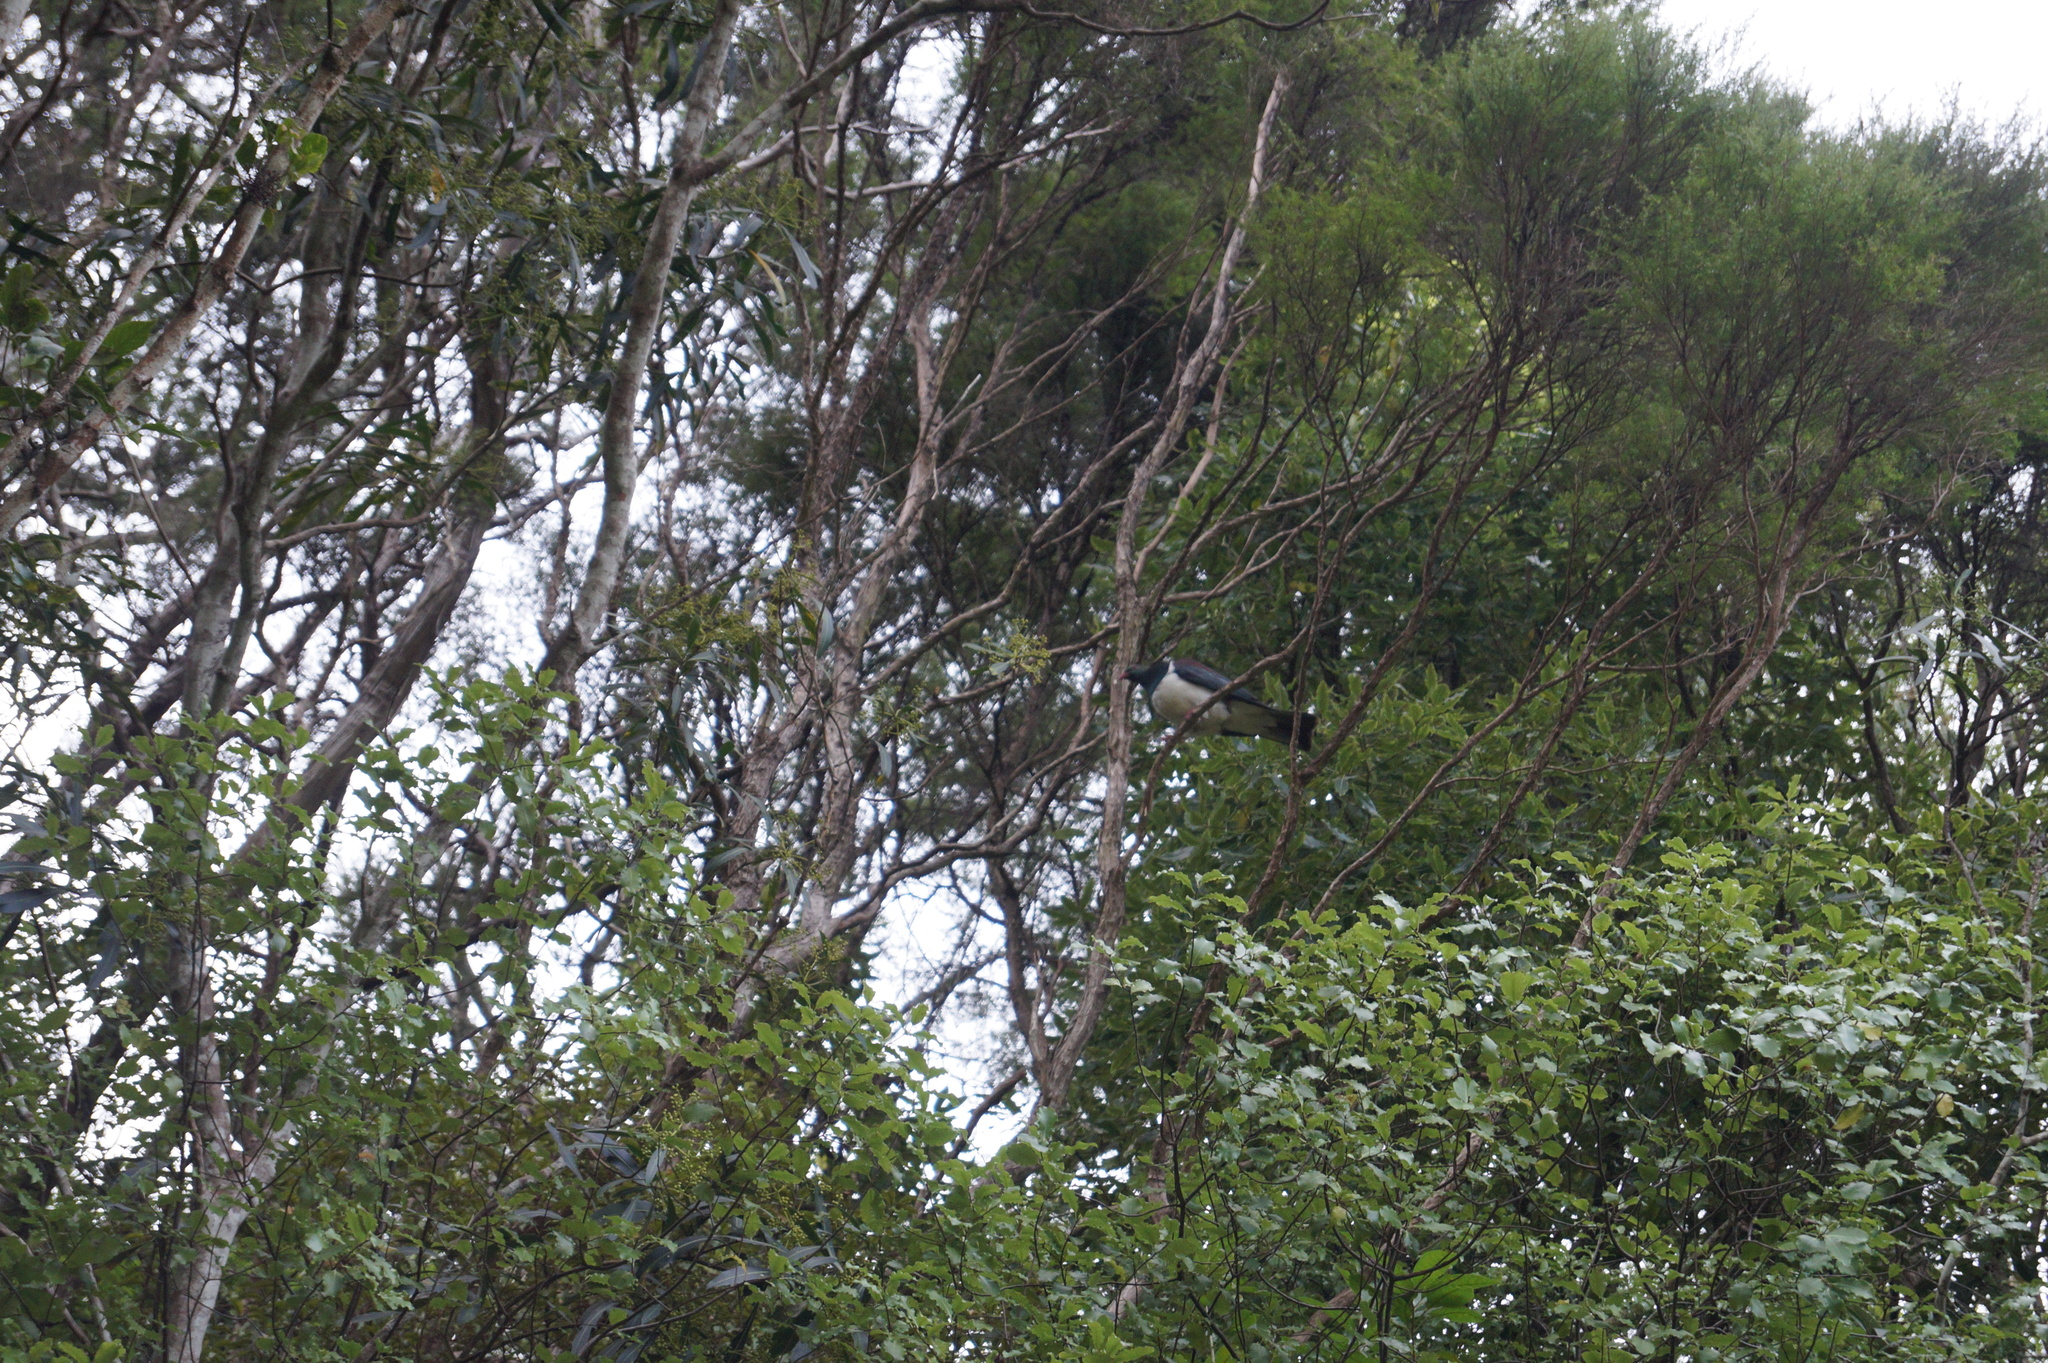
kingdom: Animalia
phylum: Chordata
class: Aves
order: Columbiformes
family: Columbidae
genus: Hemiphaga
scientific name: Hemiphaga novaeseelandiae
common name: New zealand pigeon
